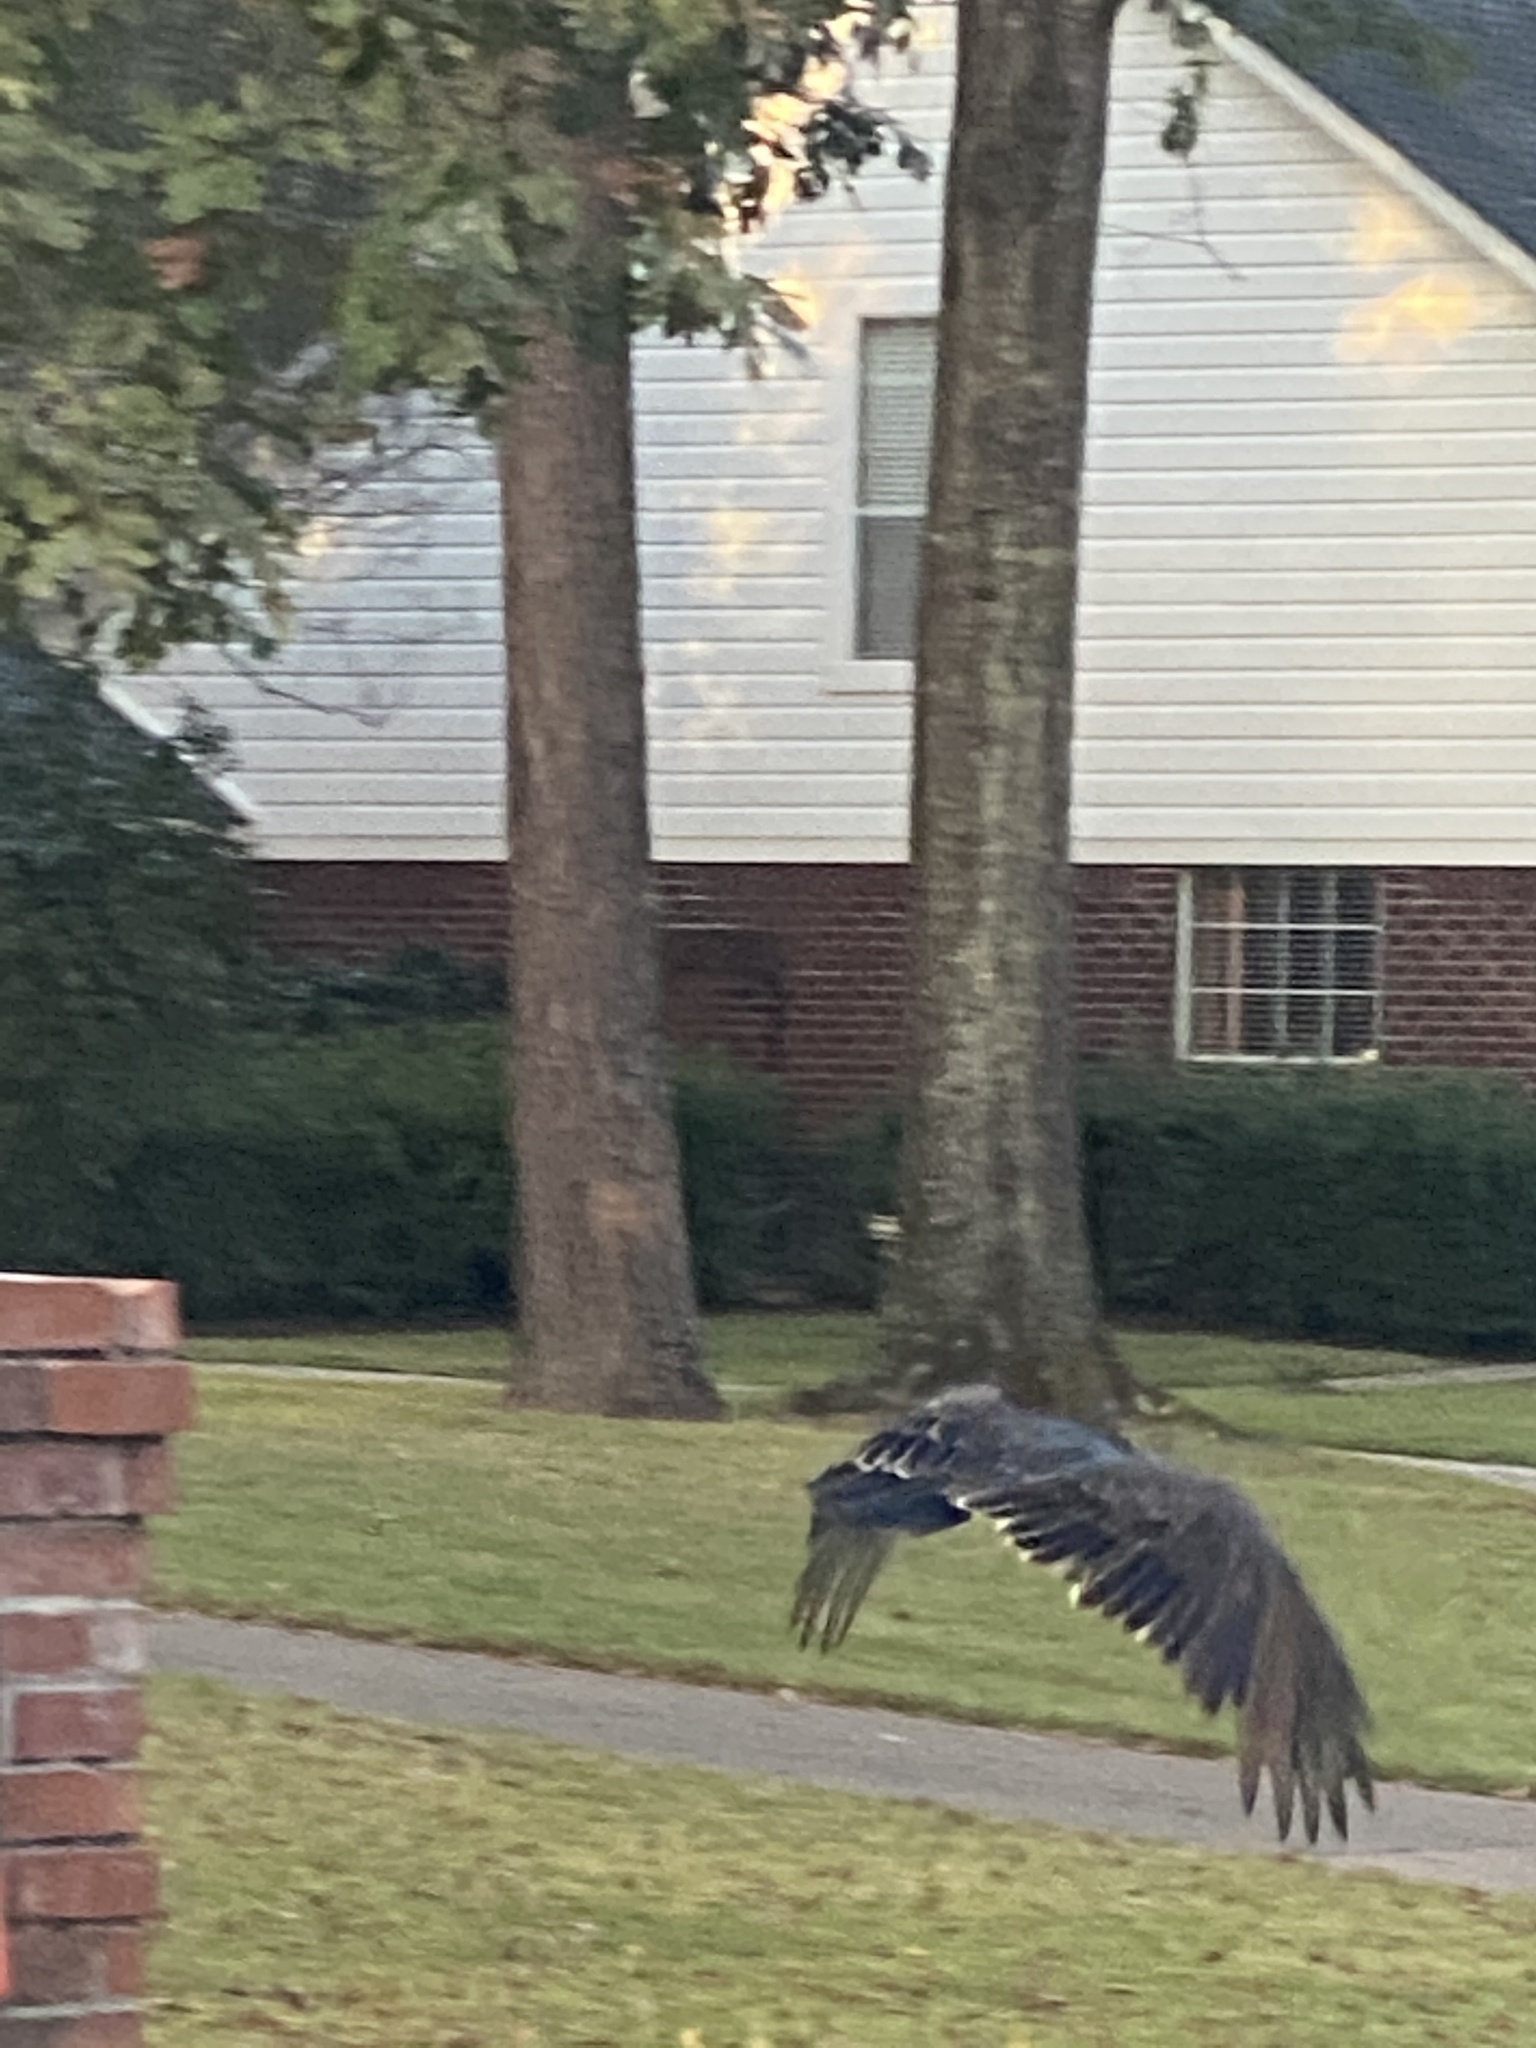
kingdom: Animalia
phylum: Chordata
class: Aves
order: Accipitriformes
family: Cathartidae
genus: Cathartes
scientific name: Cathartes aura
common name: Turkey vulture
